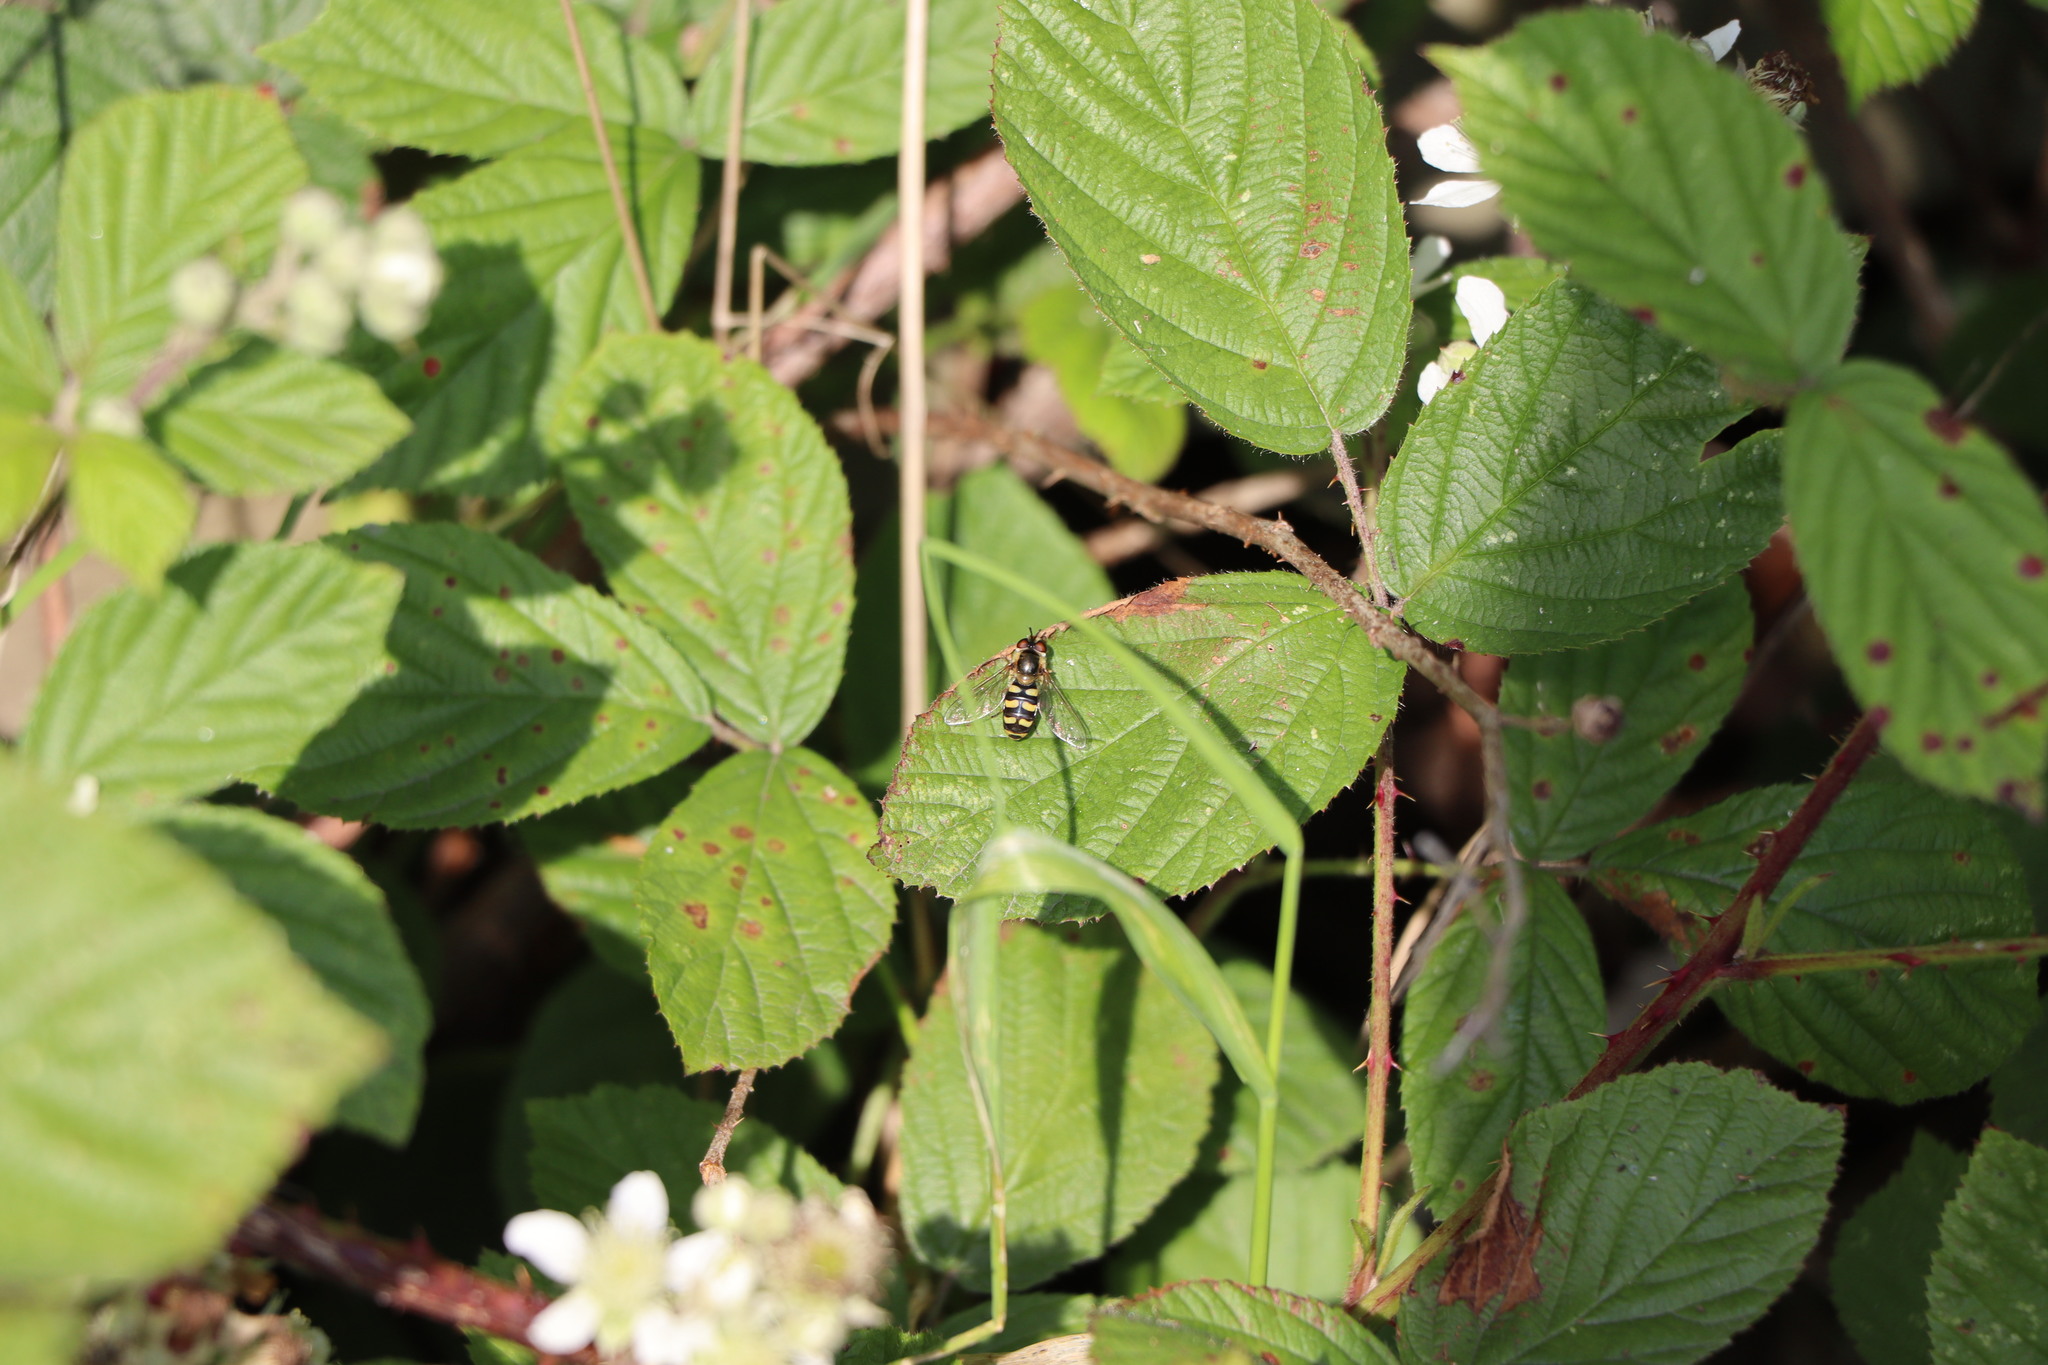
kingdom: Animalia
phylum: Arthropoda
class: Insecta
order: Diptera
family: Syrphidae
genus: Eupeodes
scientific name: Eupeodes
